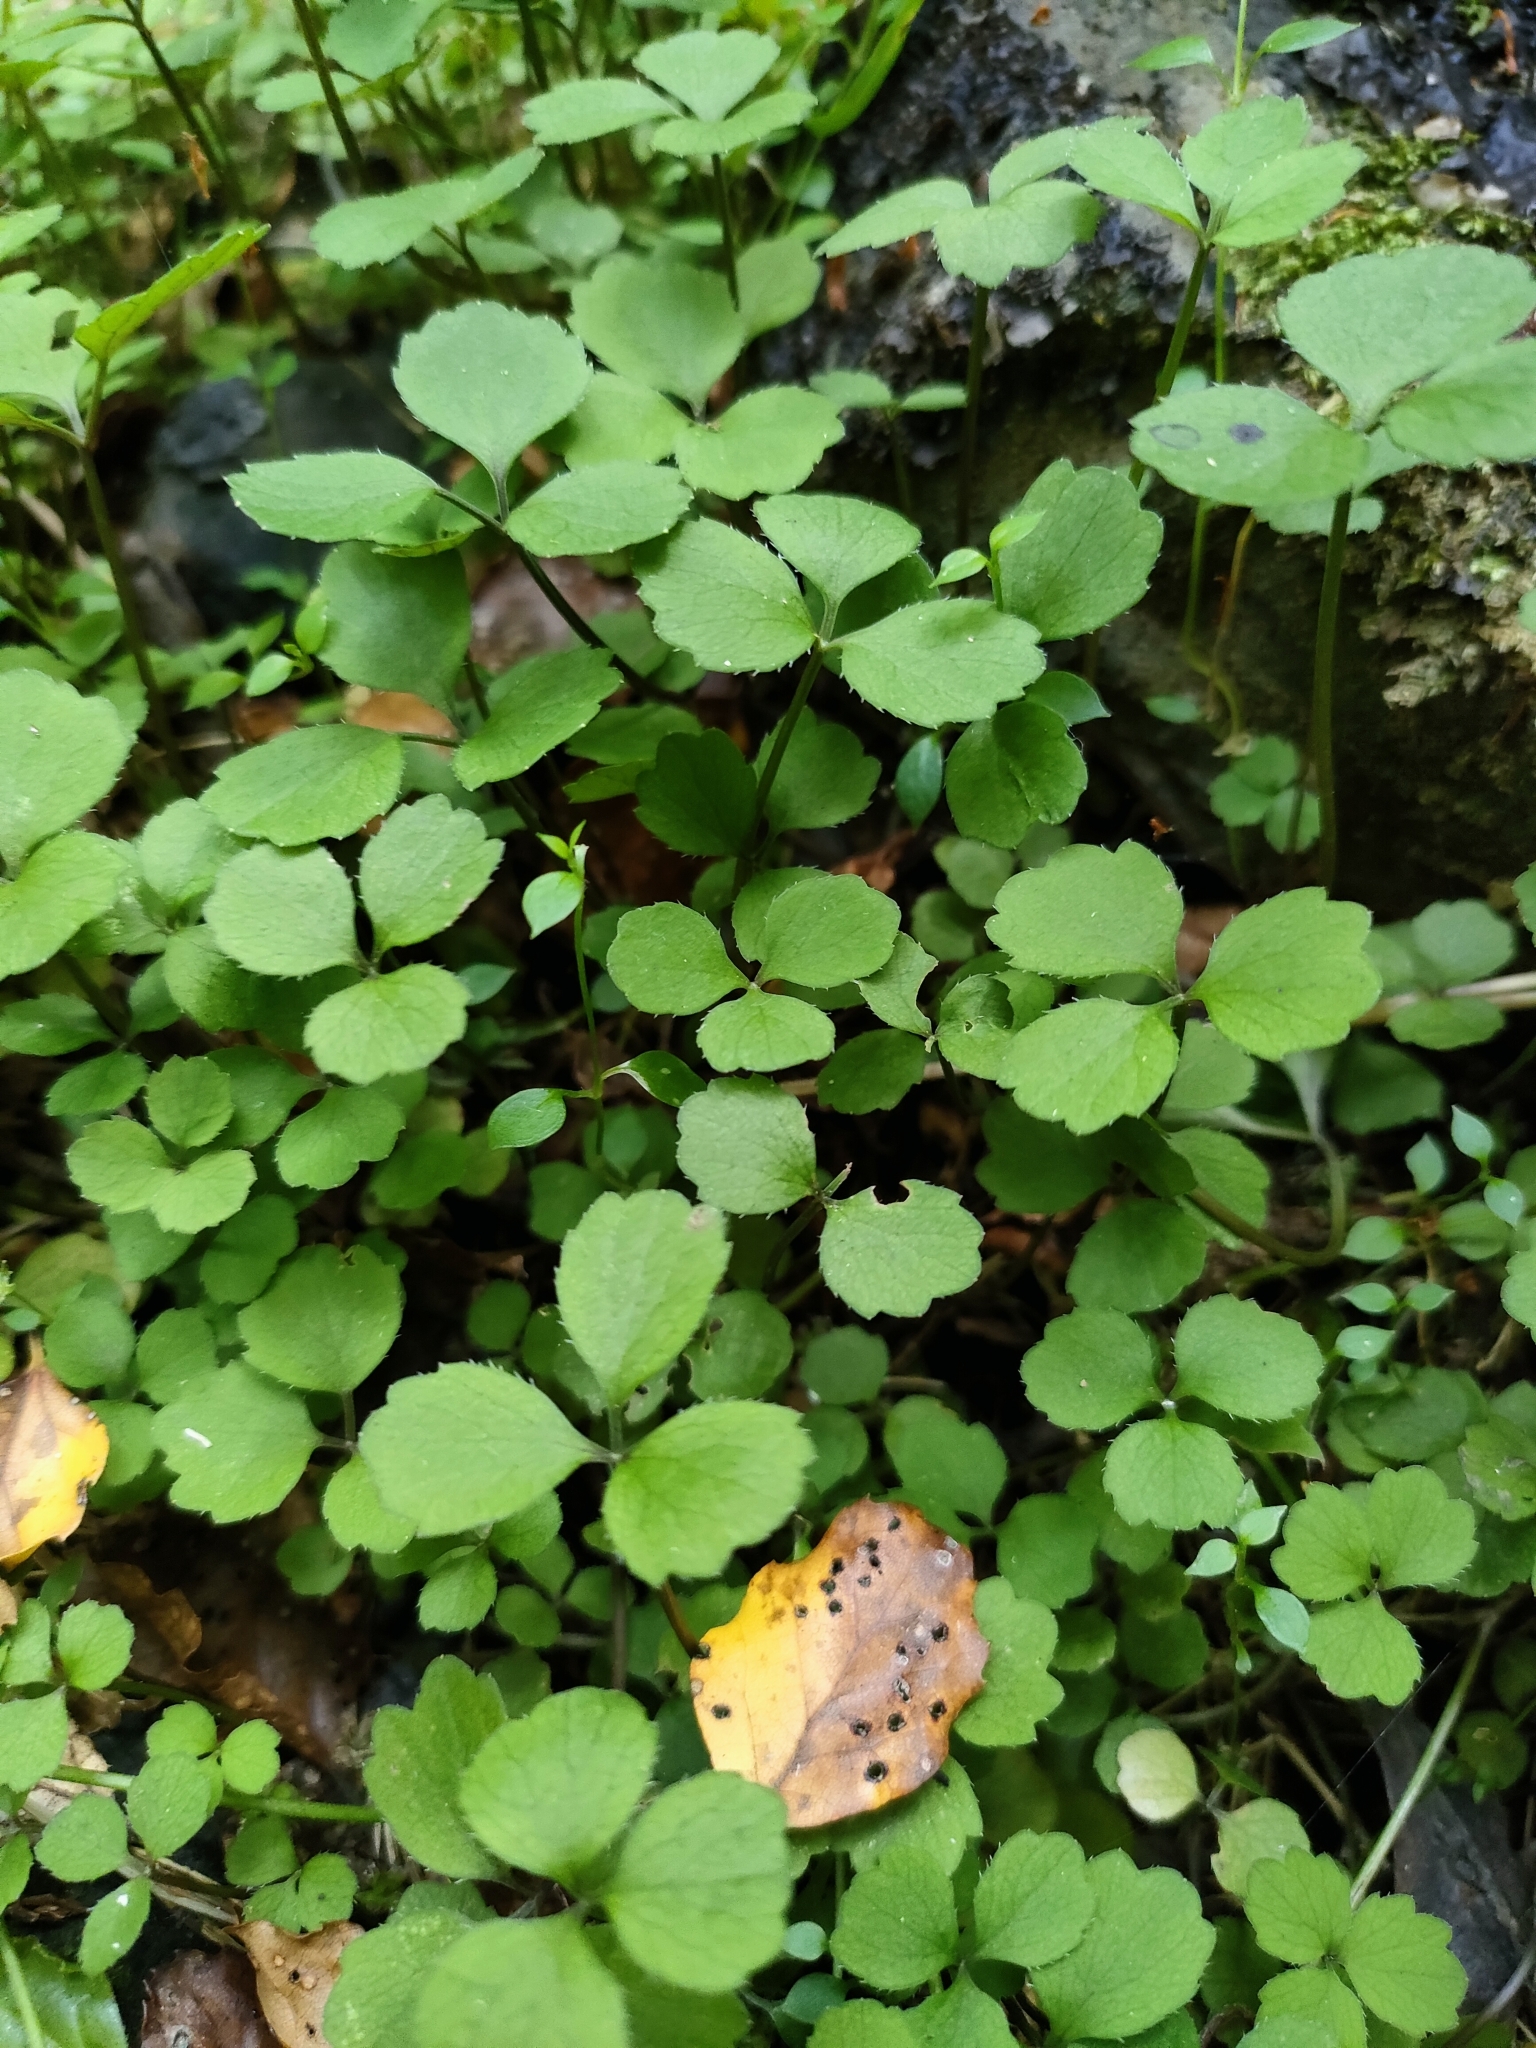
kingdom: Plantae
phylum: Tracheophyta
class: Magnoliopsida
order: Apiales
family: Apiaceae
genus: Azorella
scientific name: Azorella hookeri
